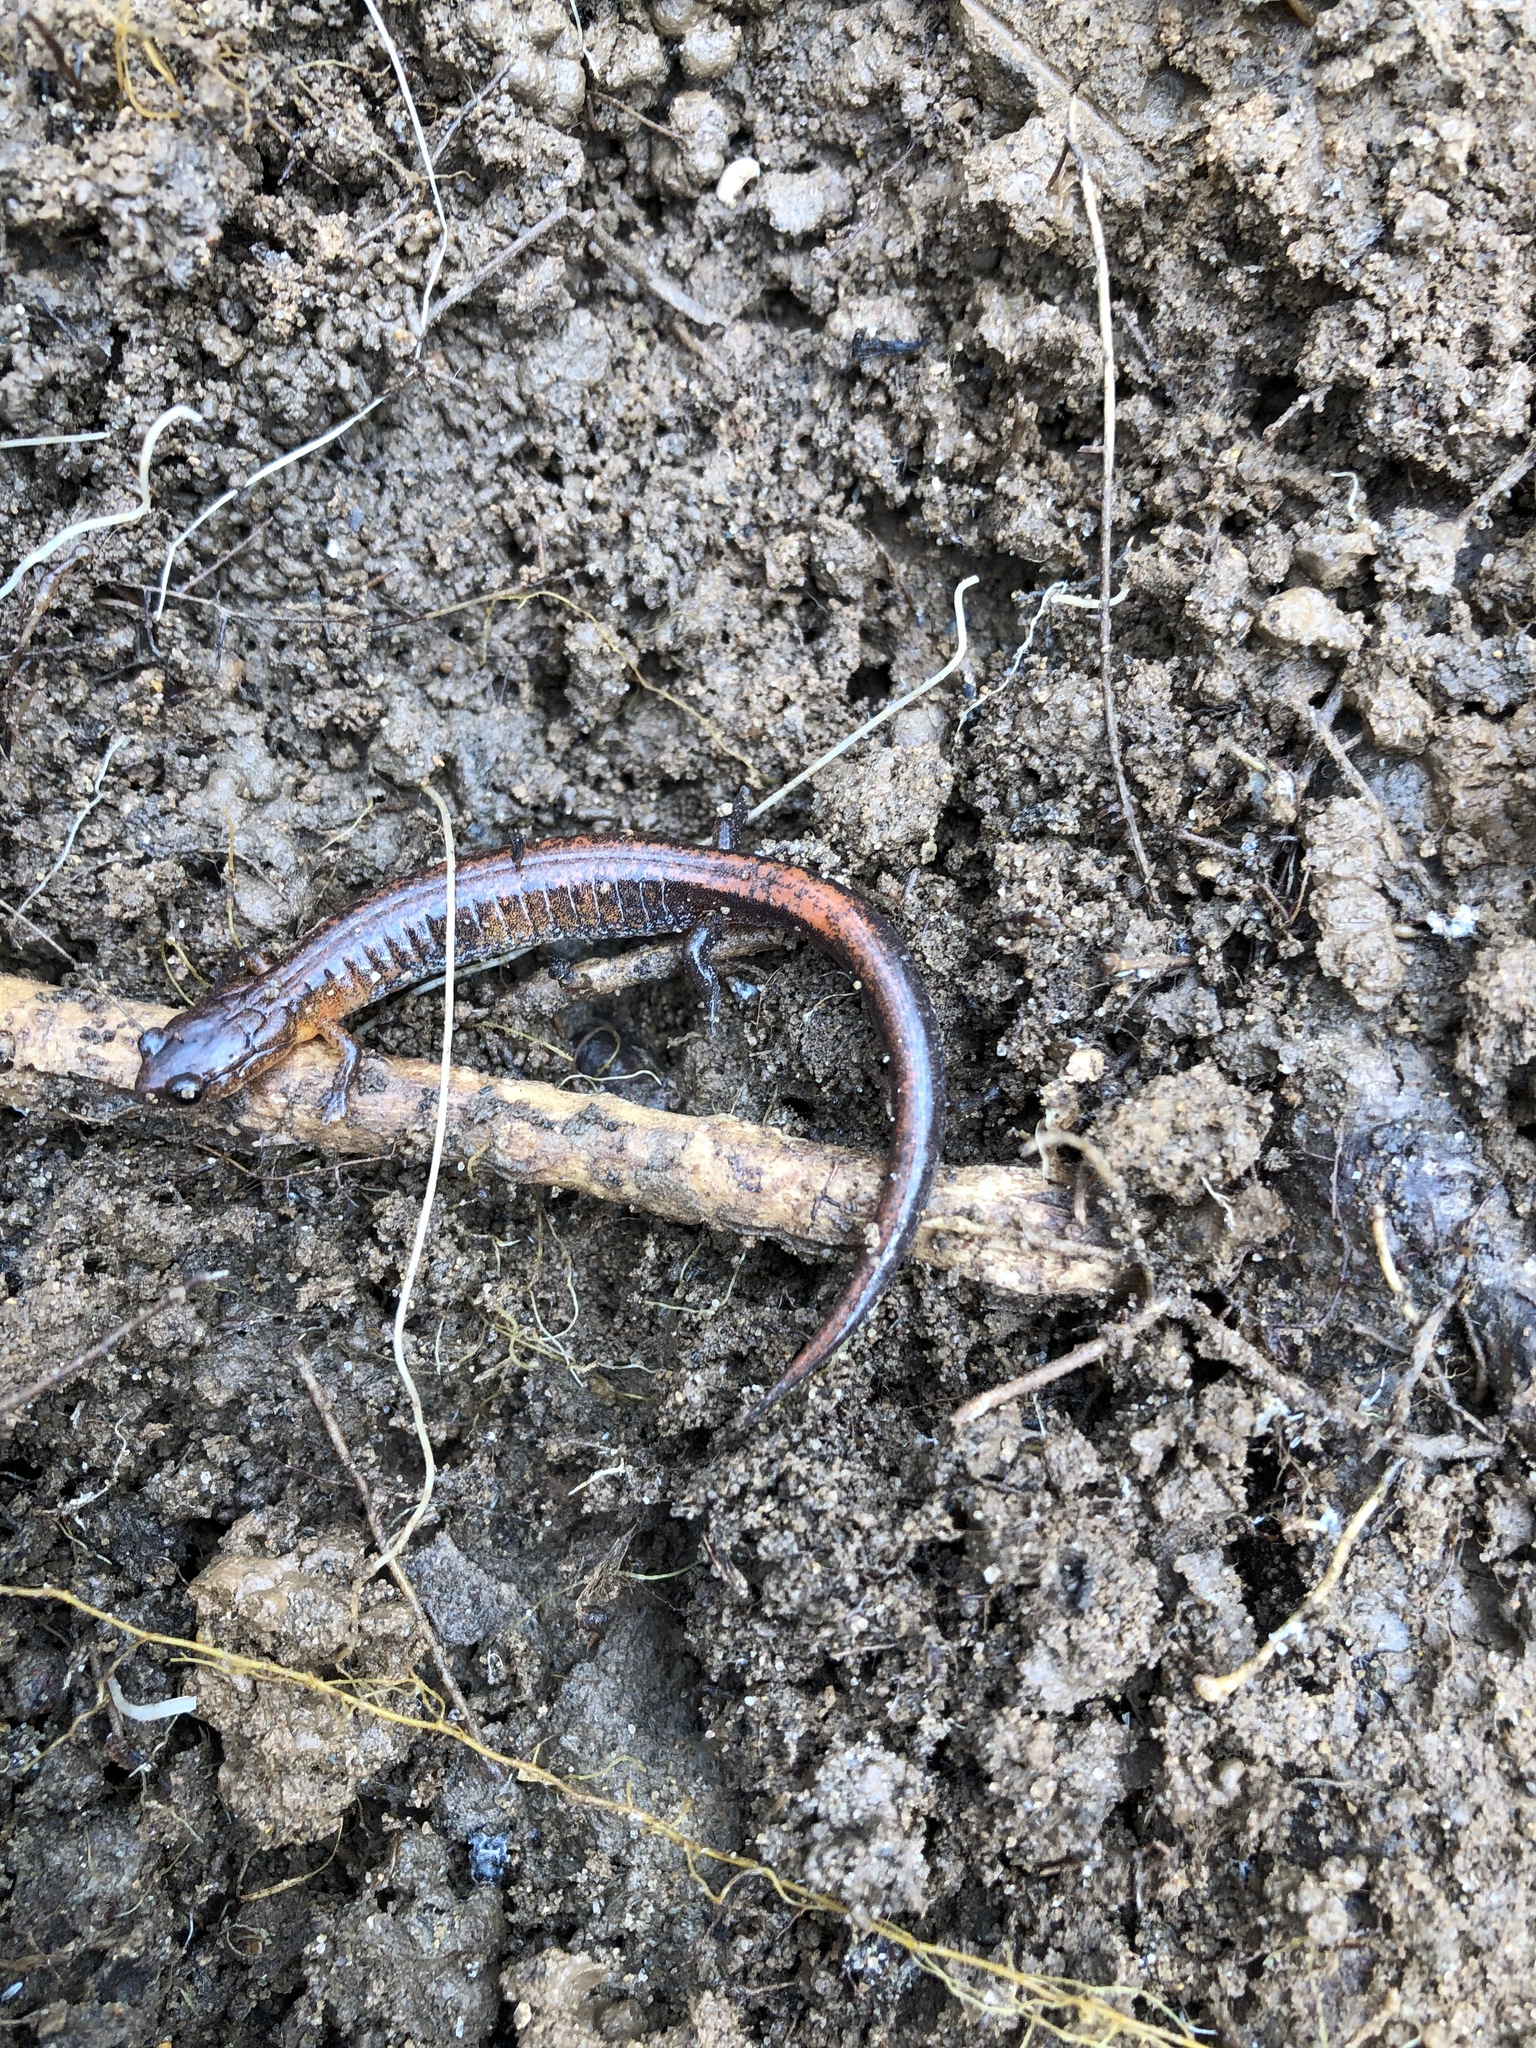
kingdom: Animalia
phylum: Chordata
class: Amphibia
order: Caudata
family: Plethodontidae
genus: Plethodon
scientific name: Plethodon websteri
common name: Webster's salamander
